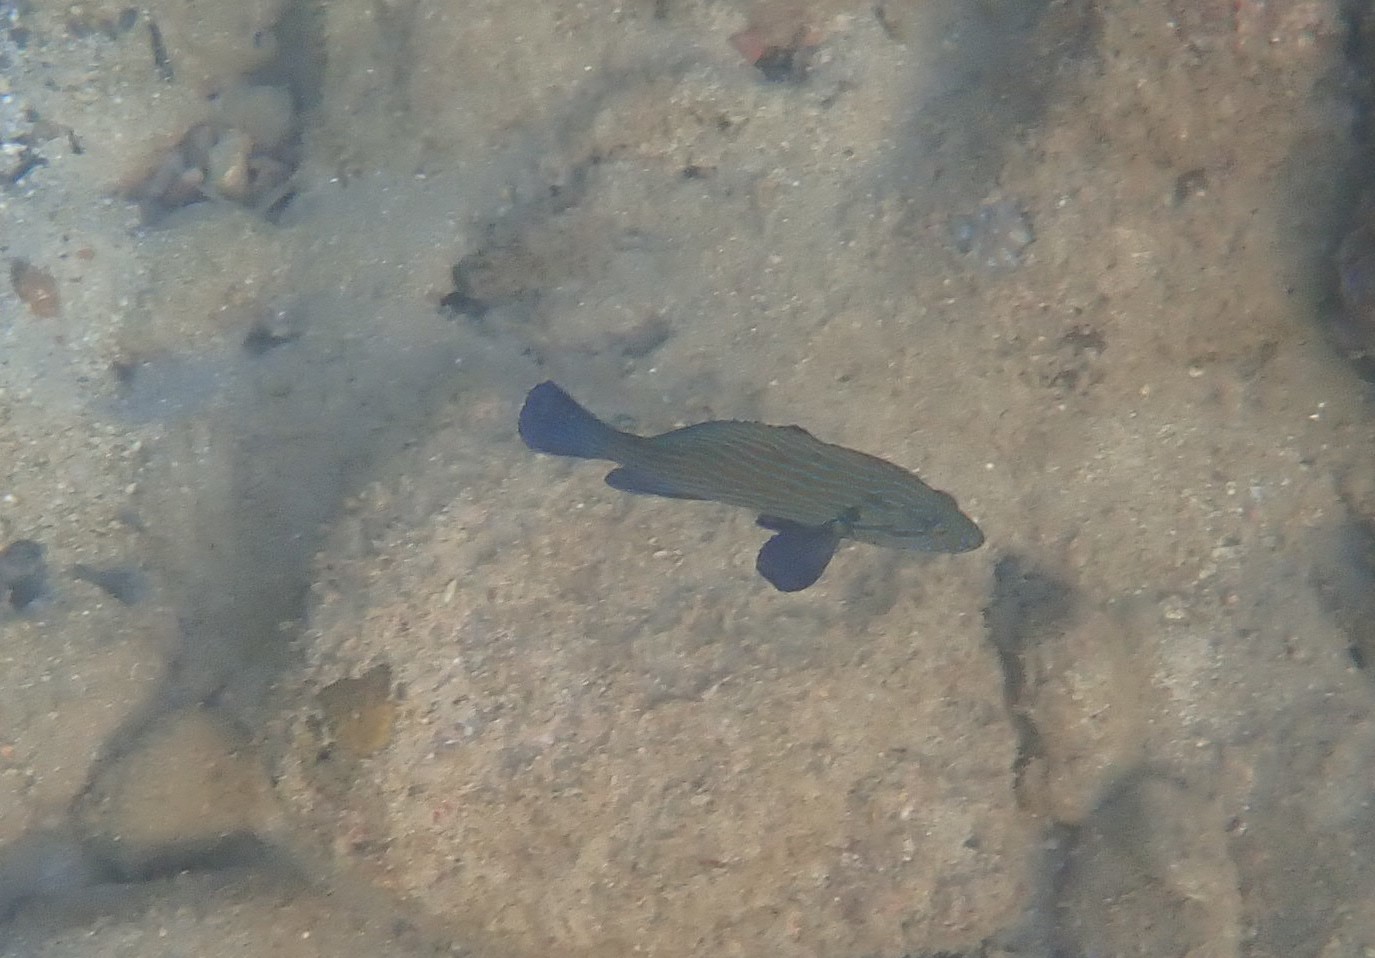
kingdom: Animalia
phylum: Chordata
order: Perciformes
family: Serranidae
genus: Cephalopholis
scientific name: Cephalopholis formosa
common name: Bluelined hind
